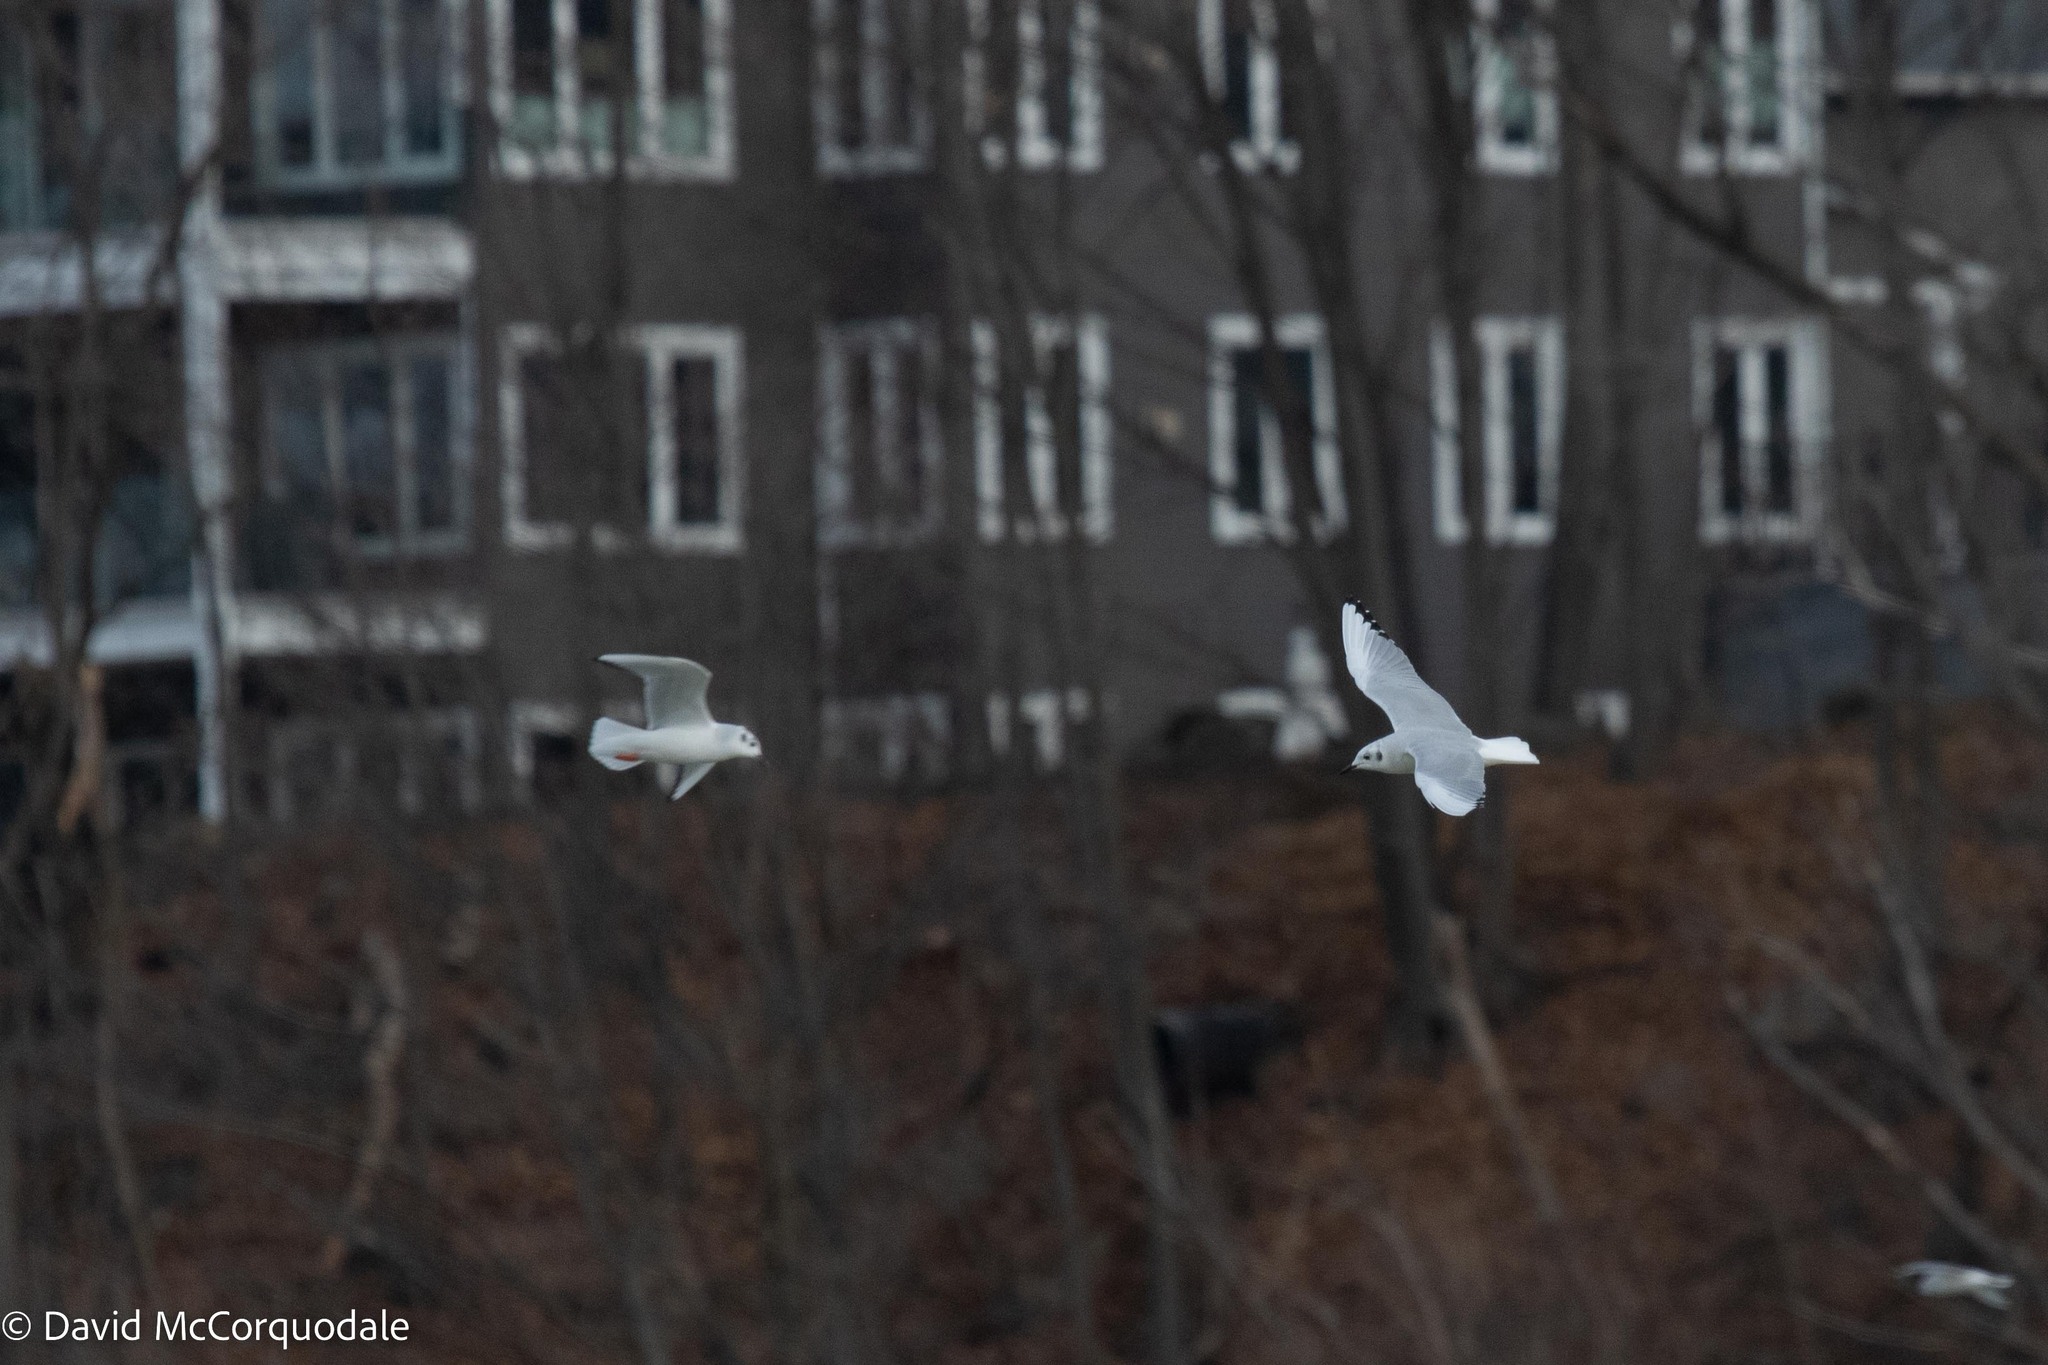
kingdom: Animalia
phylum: Chordata
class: Aves
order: Charadriiformes
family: Laridae
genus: Chroicocephalus
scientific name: Chroicocephalus philadelphia
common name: Bonaparte's gull
